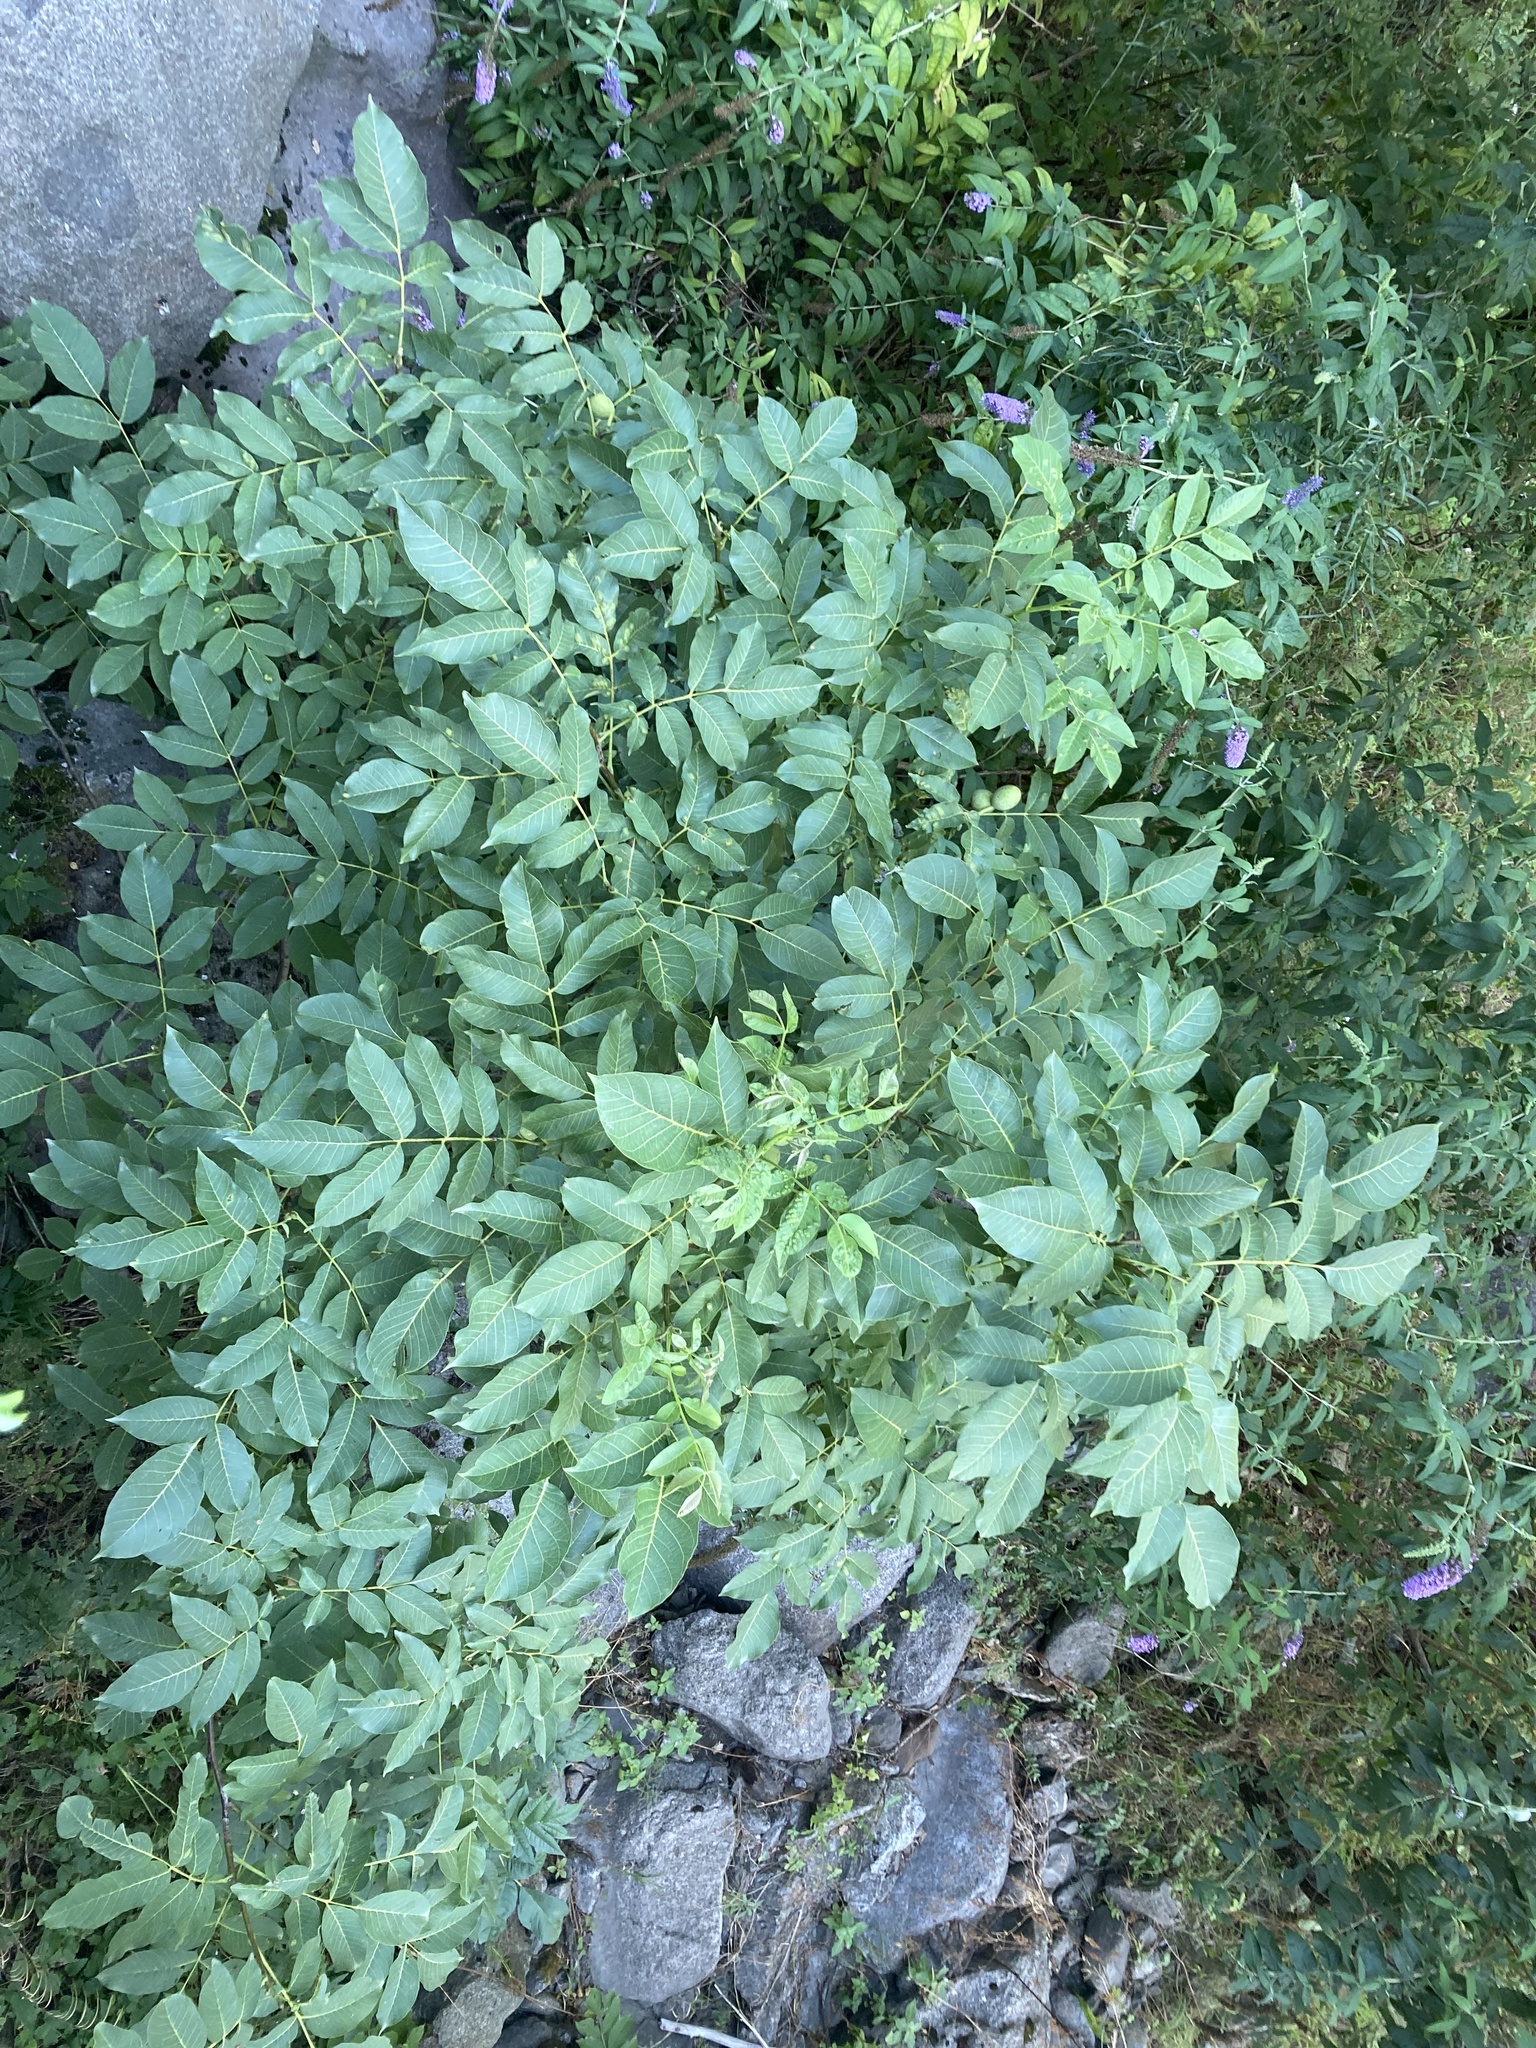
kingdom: Plantae
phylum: Tracheophyta
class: Magnoliopsida
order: Fagales
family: Juglandaceae
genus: Juglans
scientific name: Juglans regia
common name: Walnut
